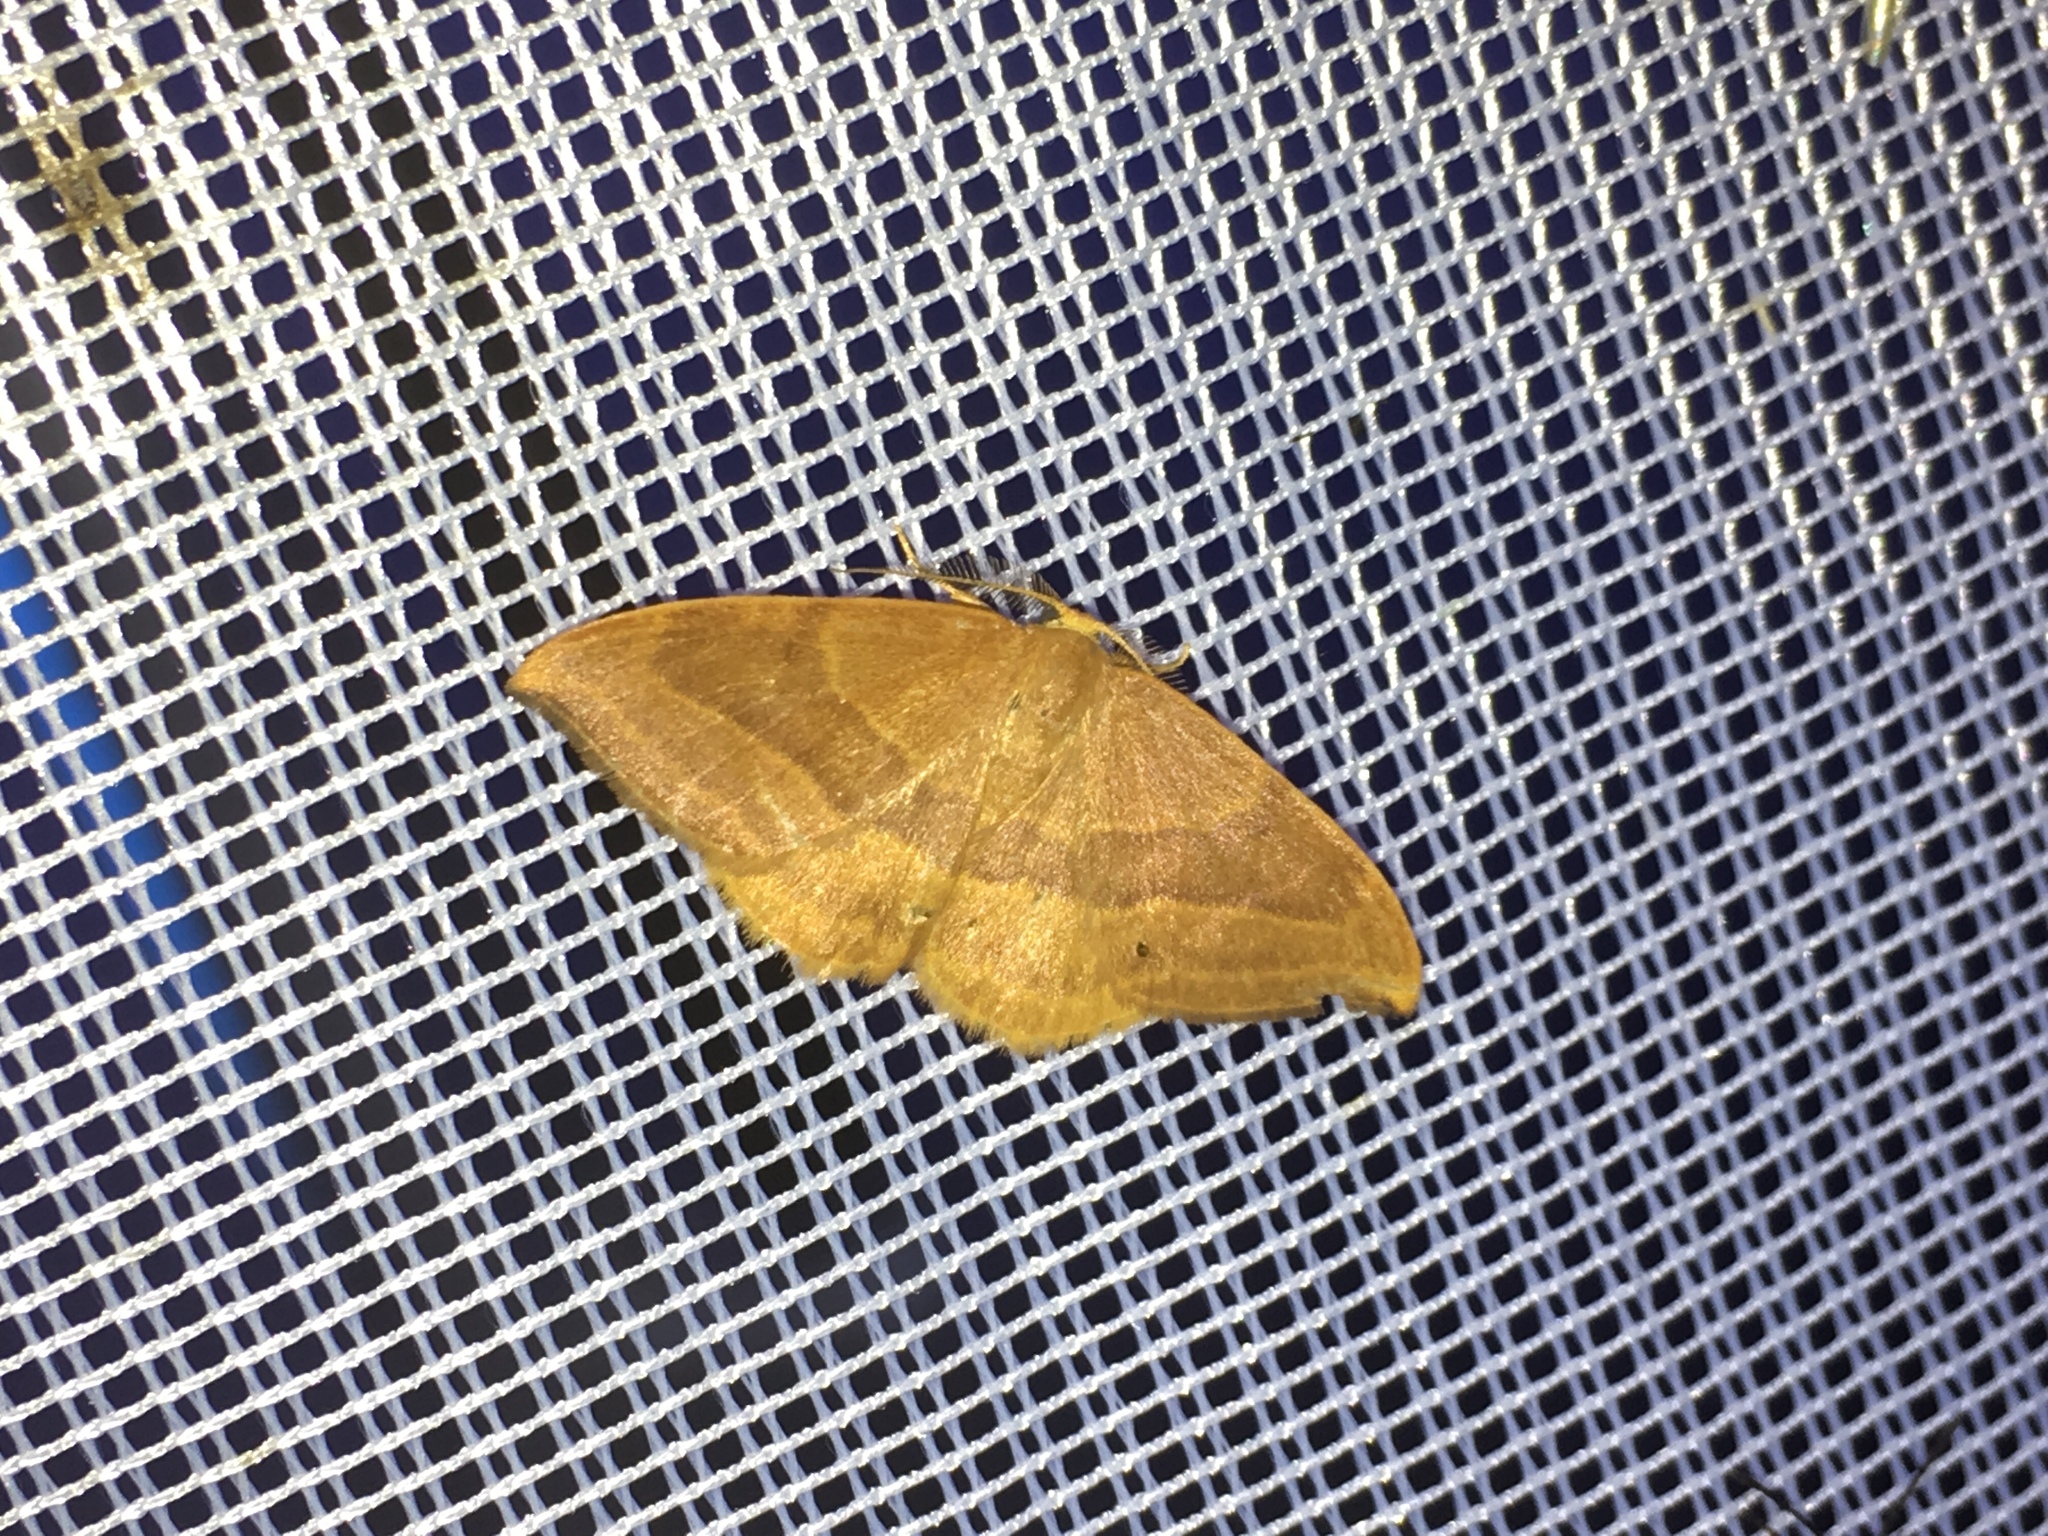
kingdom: Animalia
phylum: Arthropoda
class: Insecta
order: Lepidoptera
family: Drepanidae
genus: Watsonalla
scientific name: Watsonalla cultraria
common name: Barred hook-tip
